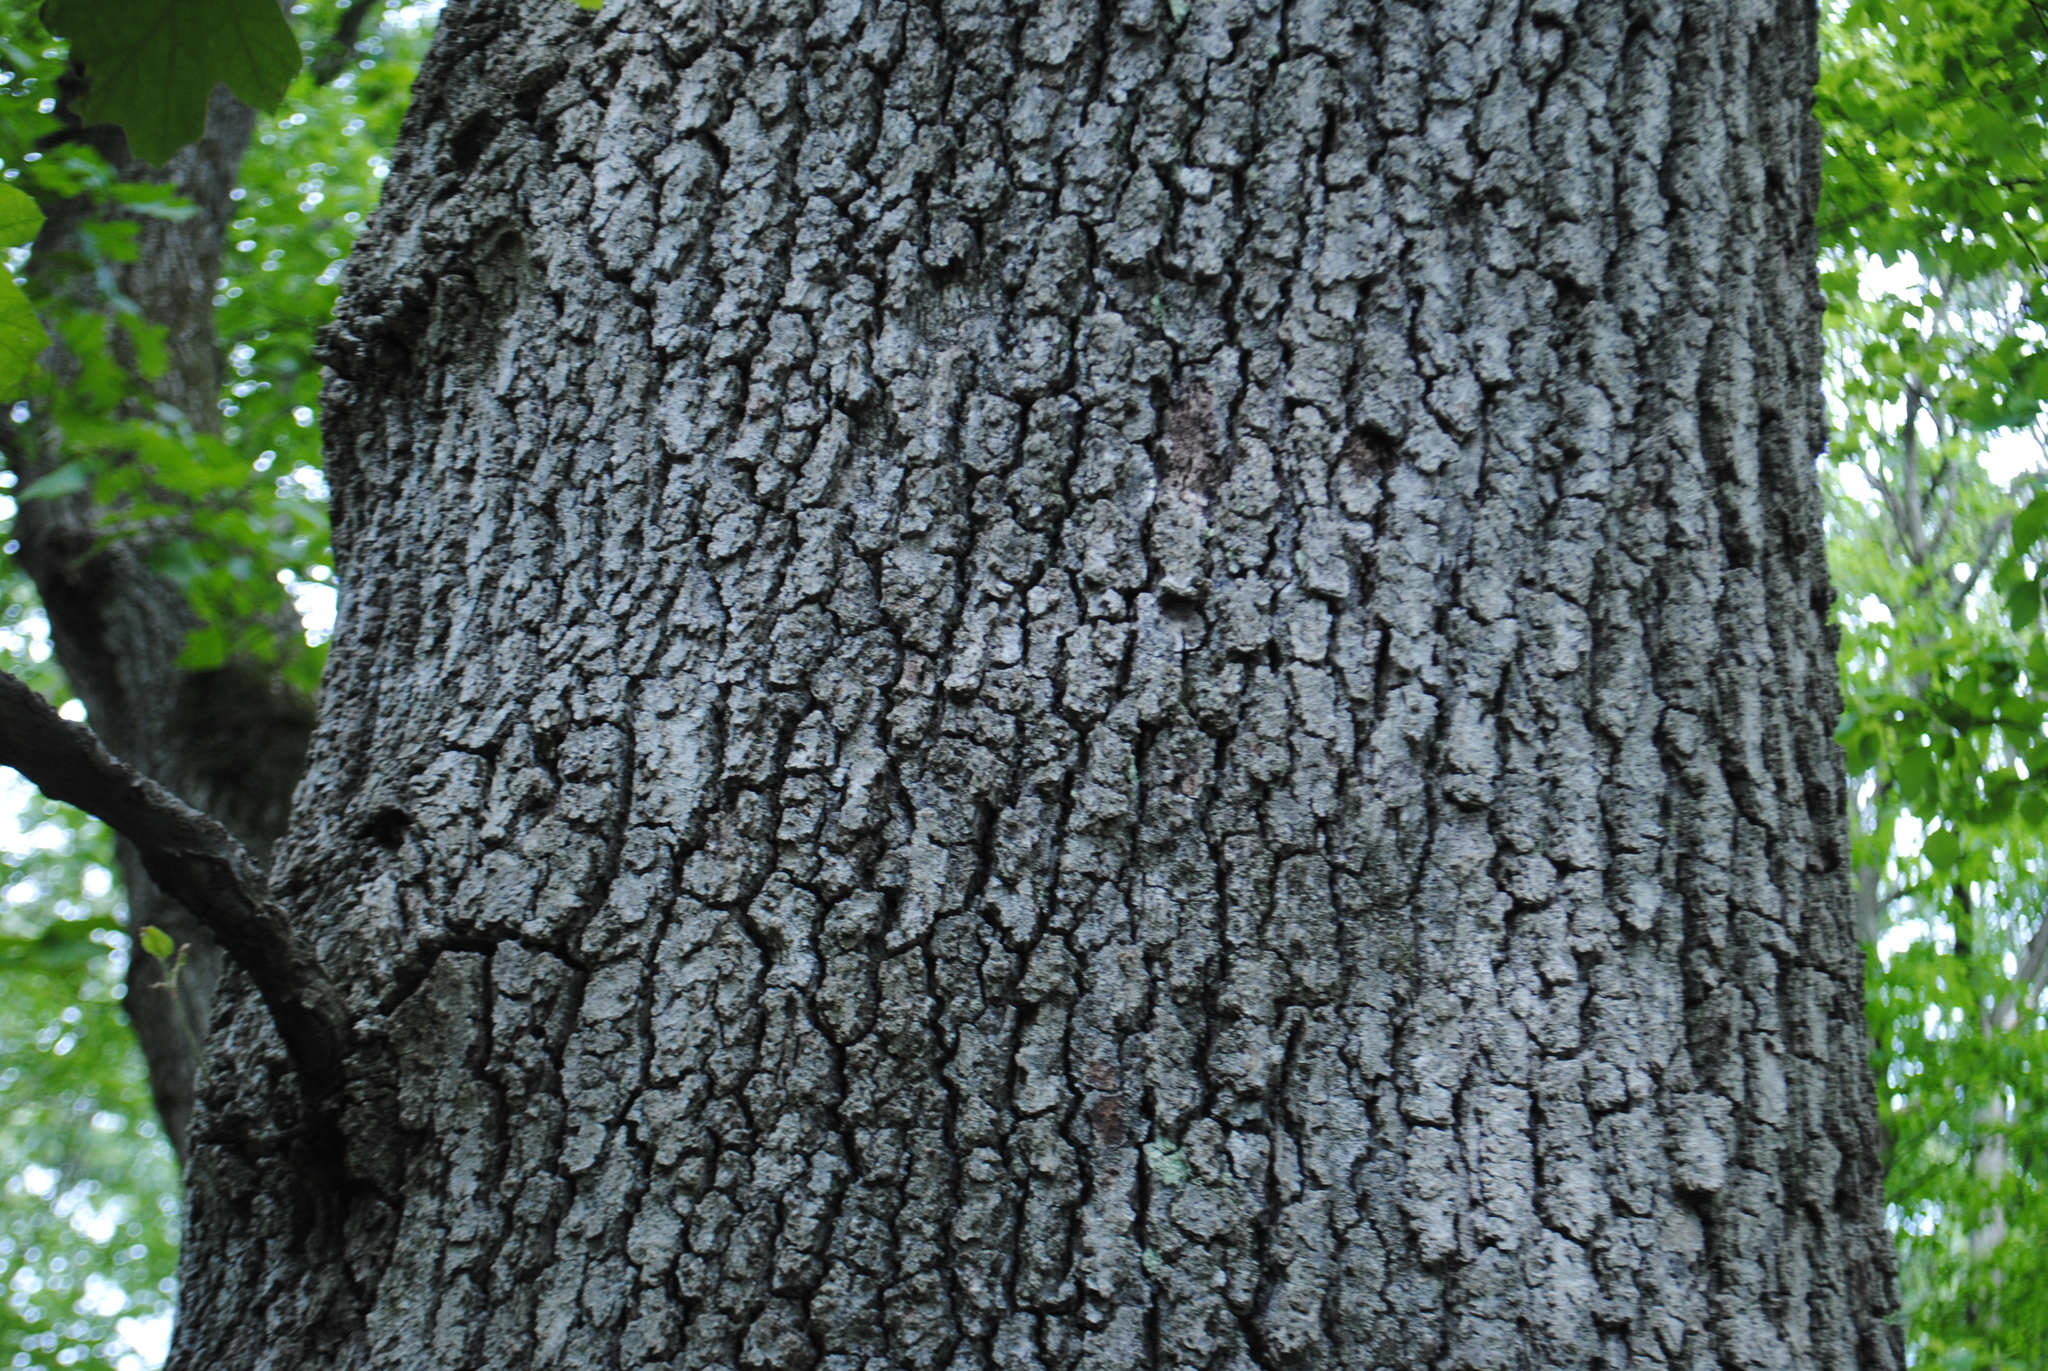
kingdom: Plantae
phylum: Tracheophyta
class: Magnoliopsida
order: Fagales
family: Fagaceae
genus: Quercus
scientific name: Quercus velutina
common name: Black oak
